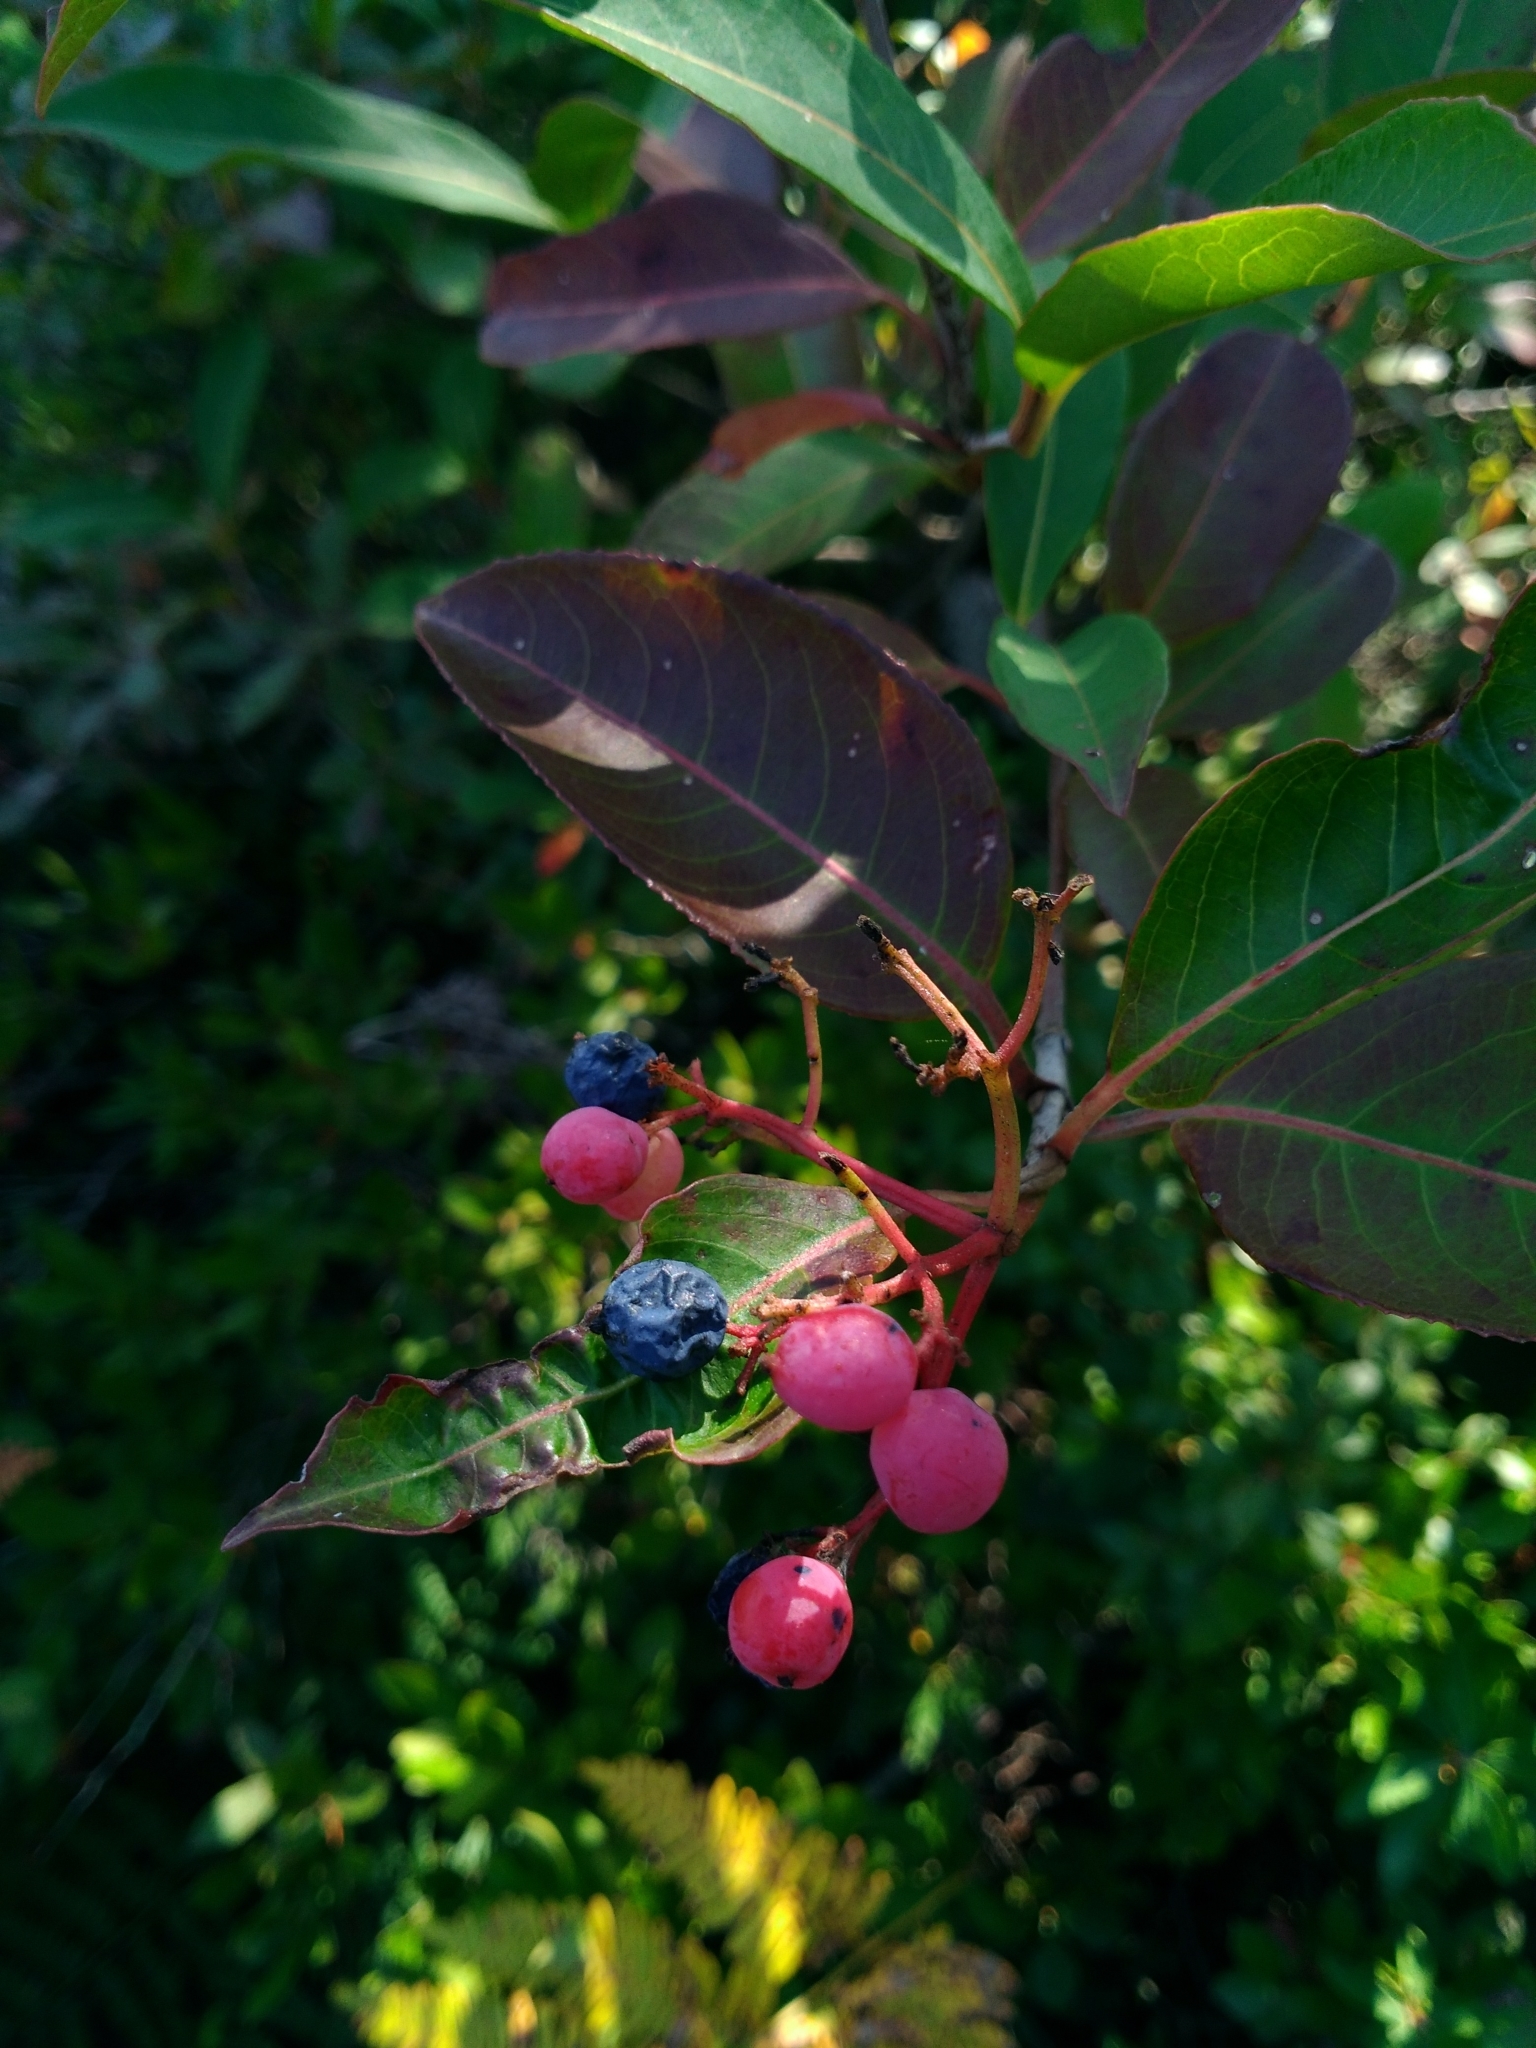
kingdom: Plantae
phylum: Tracheophyta
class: Magnoliopsida
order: Dipsacales
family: Viburnaceae
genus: Viburnum
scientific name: Viburnum cassinoides
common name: Swamp haw
